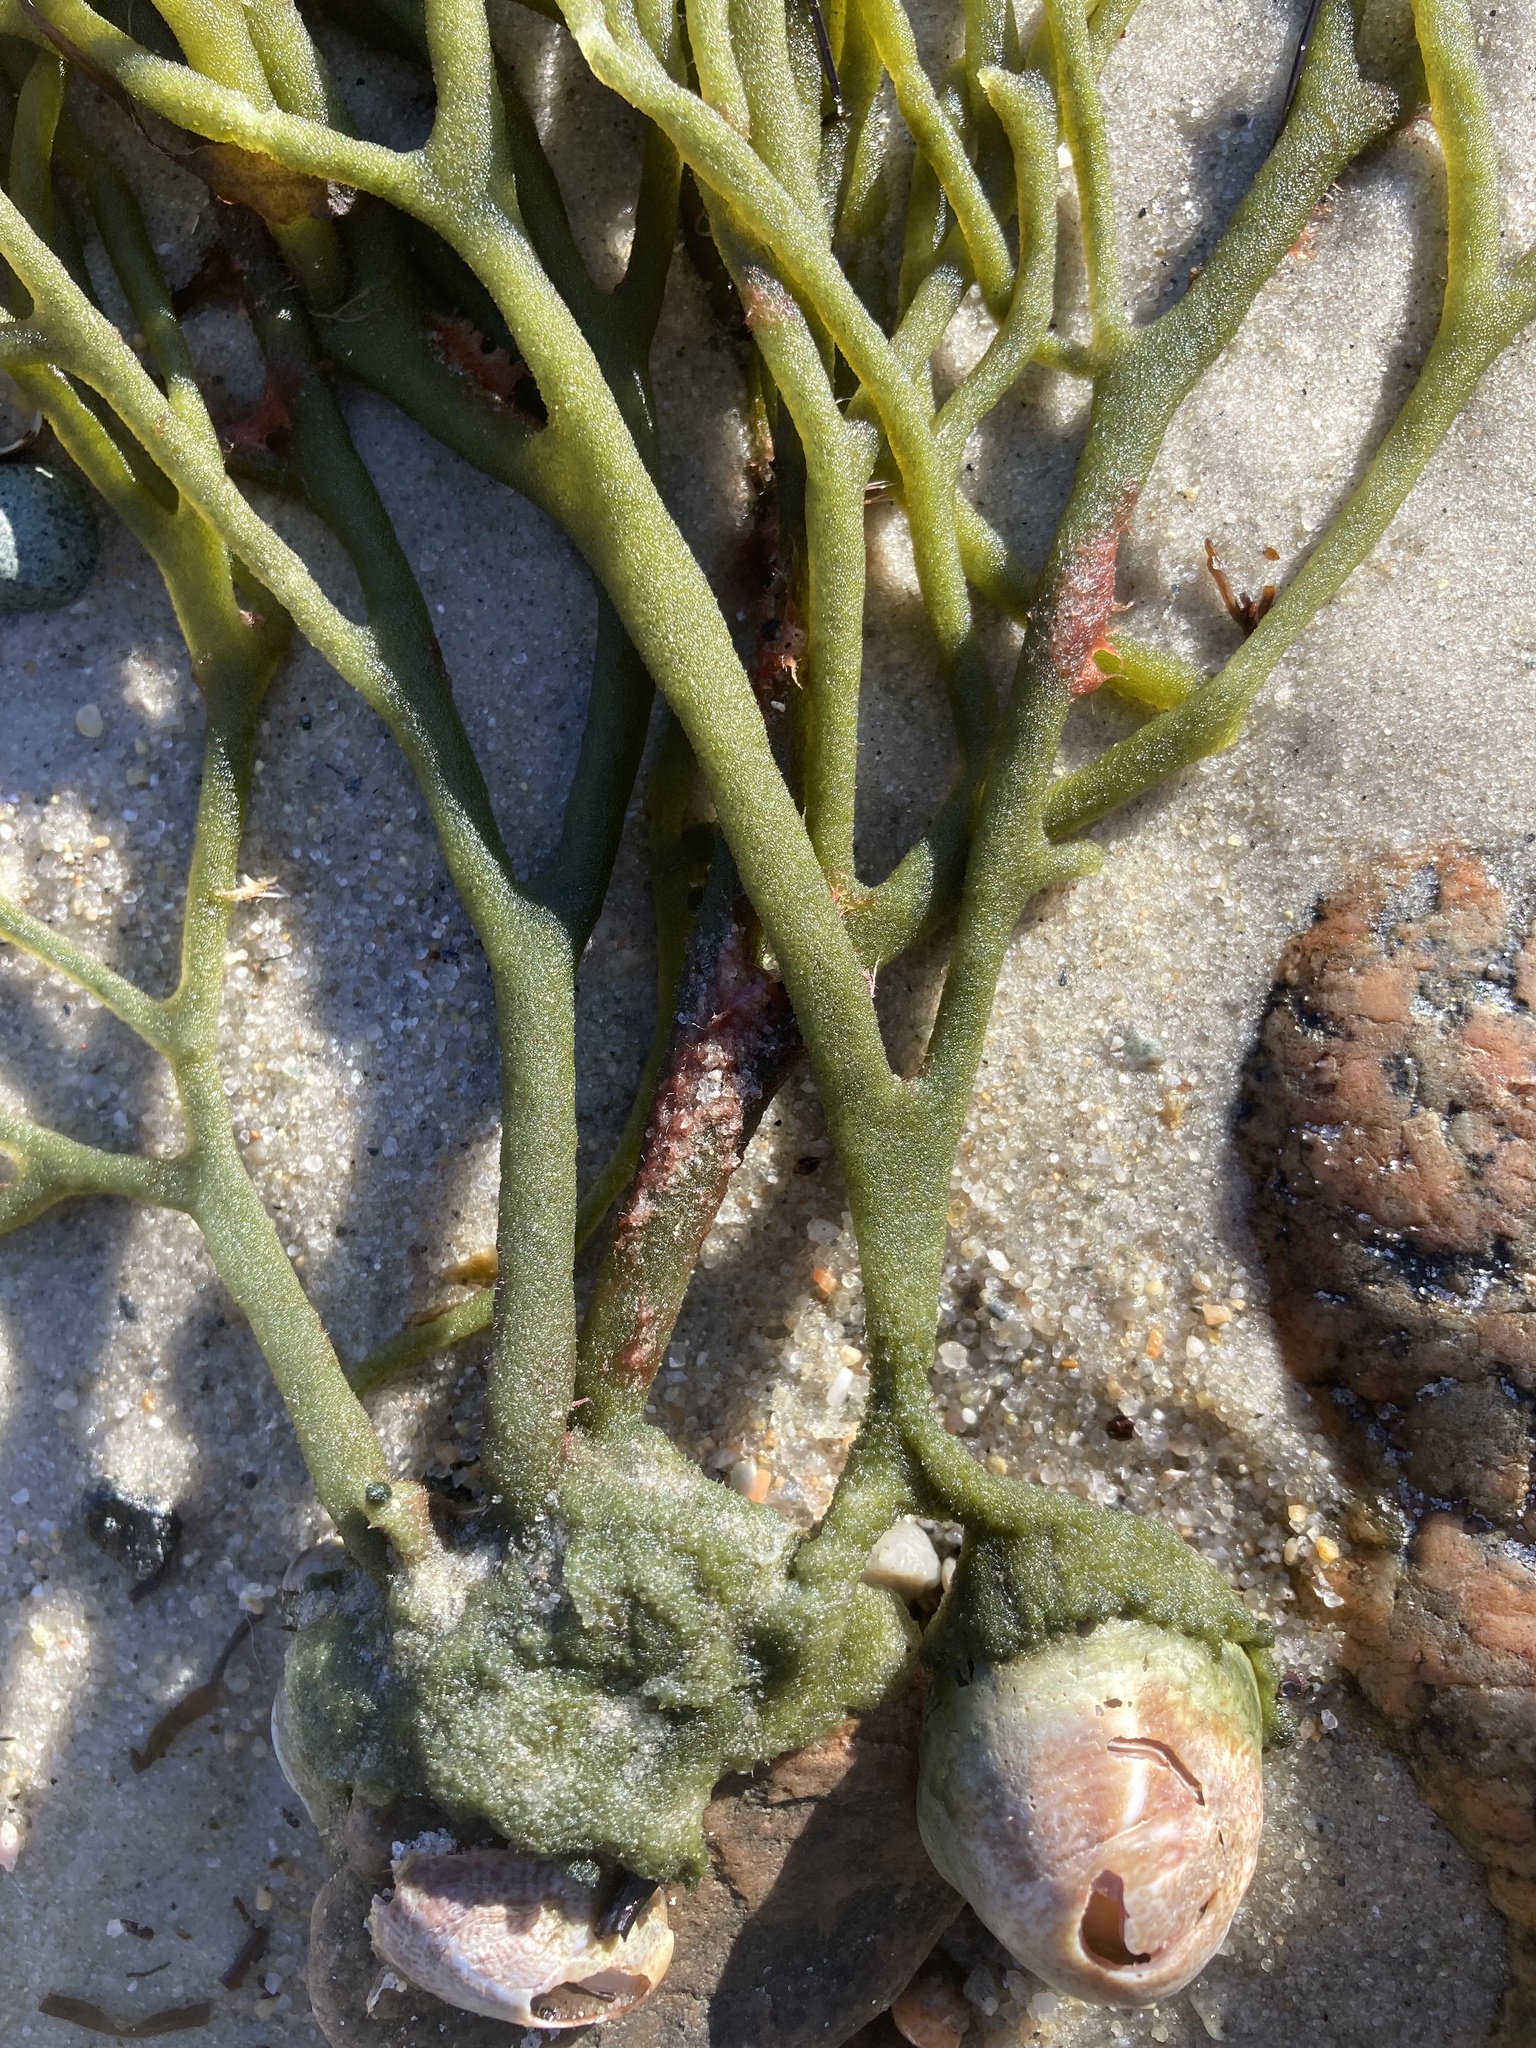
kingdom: Plantae
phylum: Chlorophyta
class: Ulvophyceae
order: Bryopsidales
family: Codiaceae
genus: Codium
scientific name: Codium fragile
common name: Dead man's fingers
